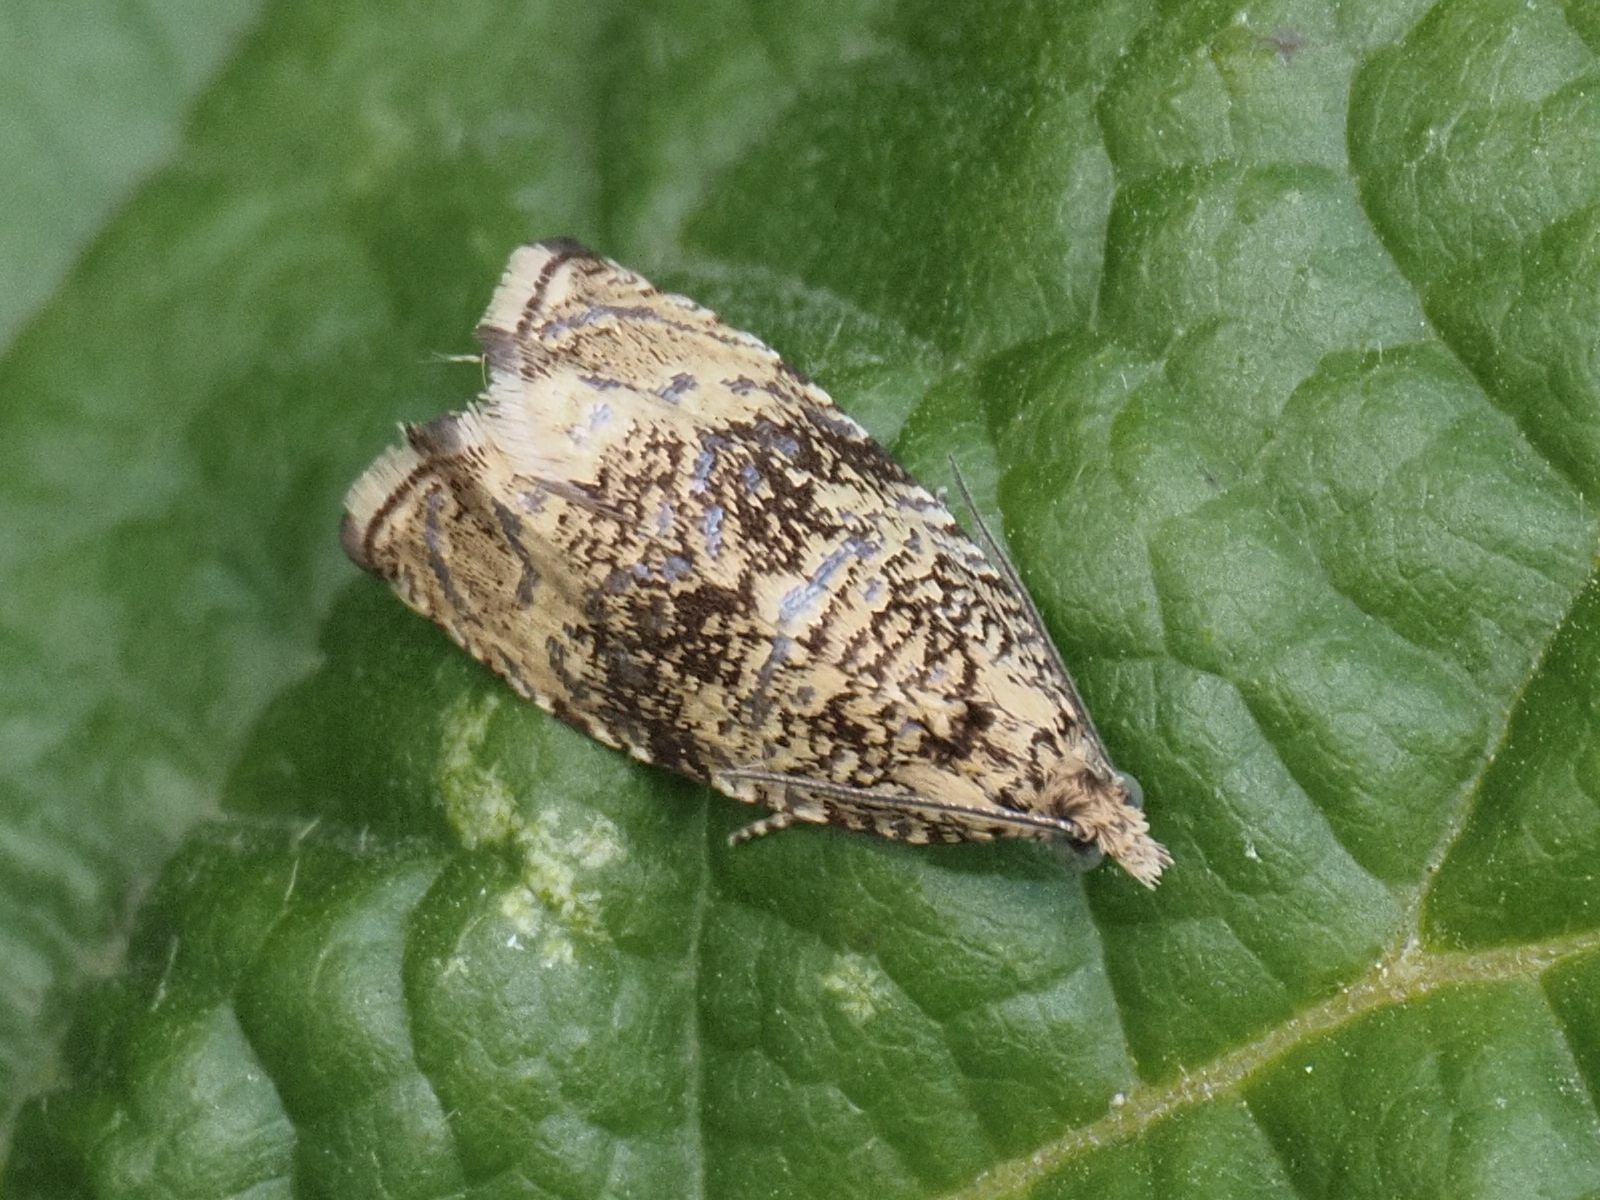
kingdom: Animalia
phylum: Arthropoda
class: Insecta
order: Lepidoptera
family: Tortricidae
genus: Syricoris
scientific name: Syricoris lacunana
